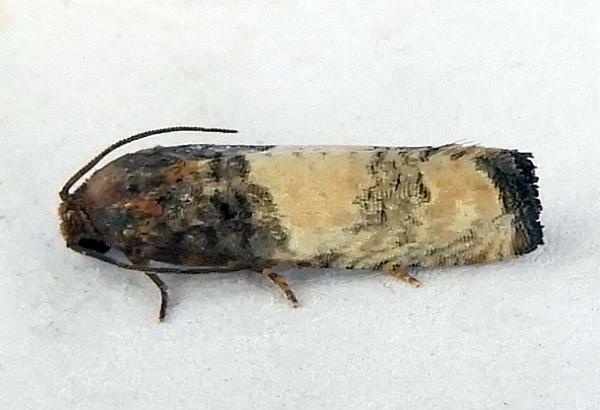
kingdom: Animalia
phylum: Arthropoda
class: Insecta
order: Lepidoptera
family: Tortricidae
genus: Epiblema
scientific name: Epiblema desertana
